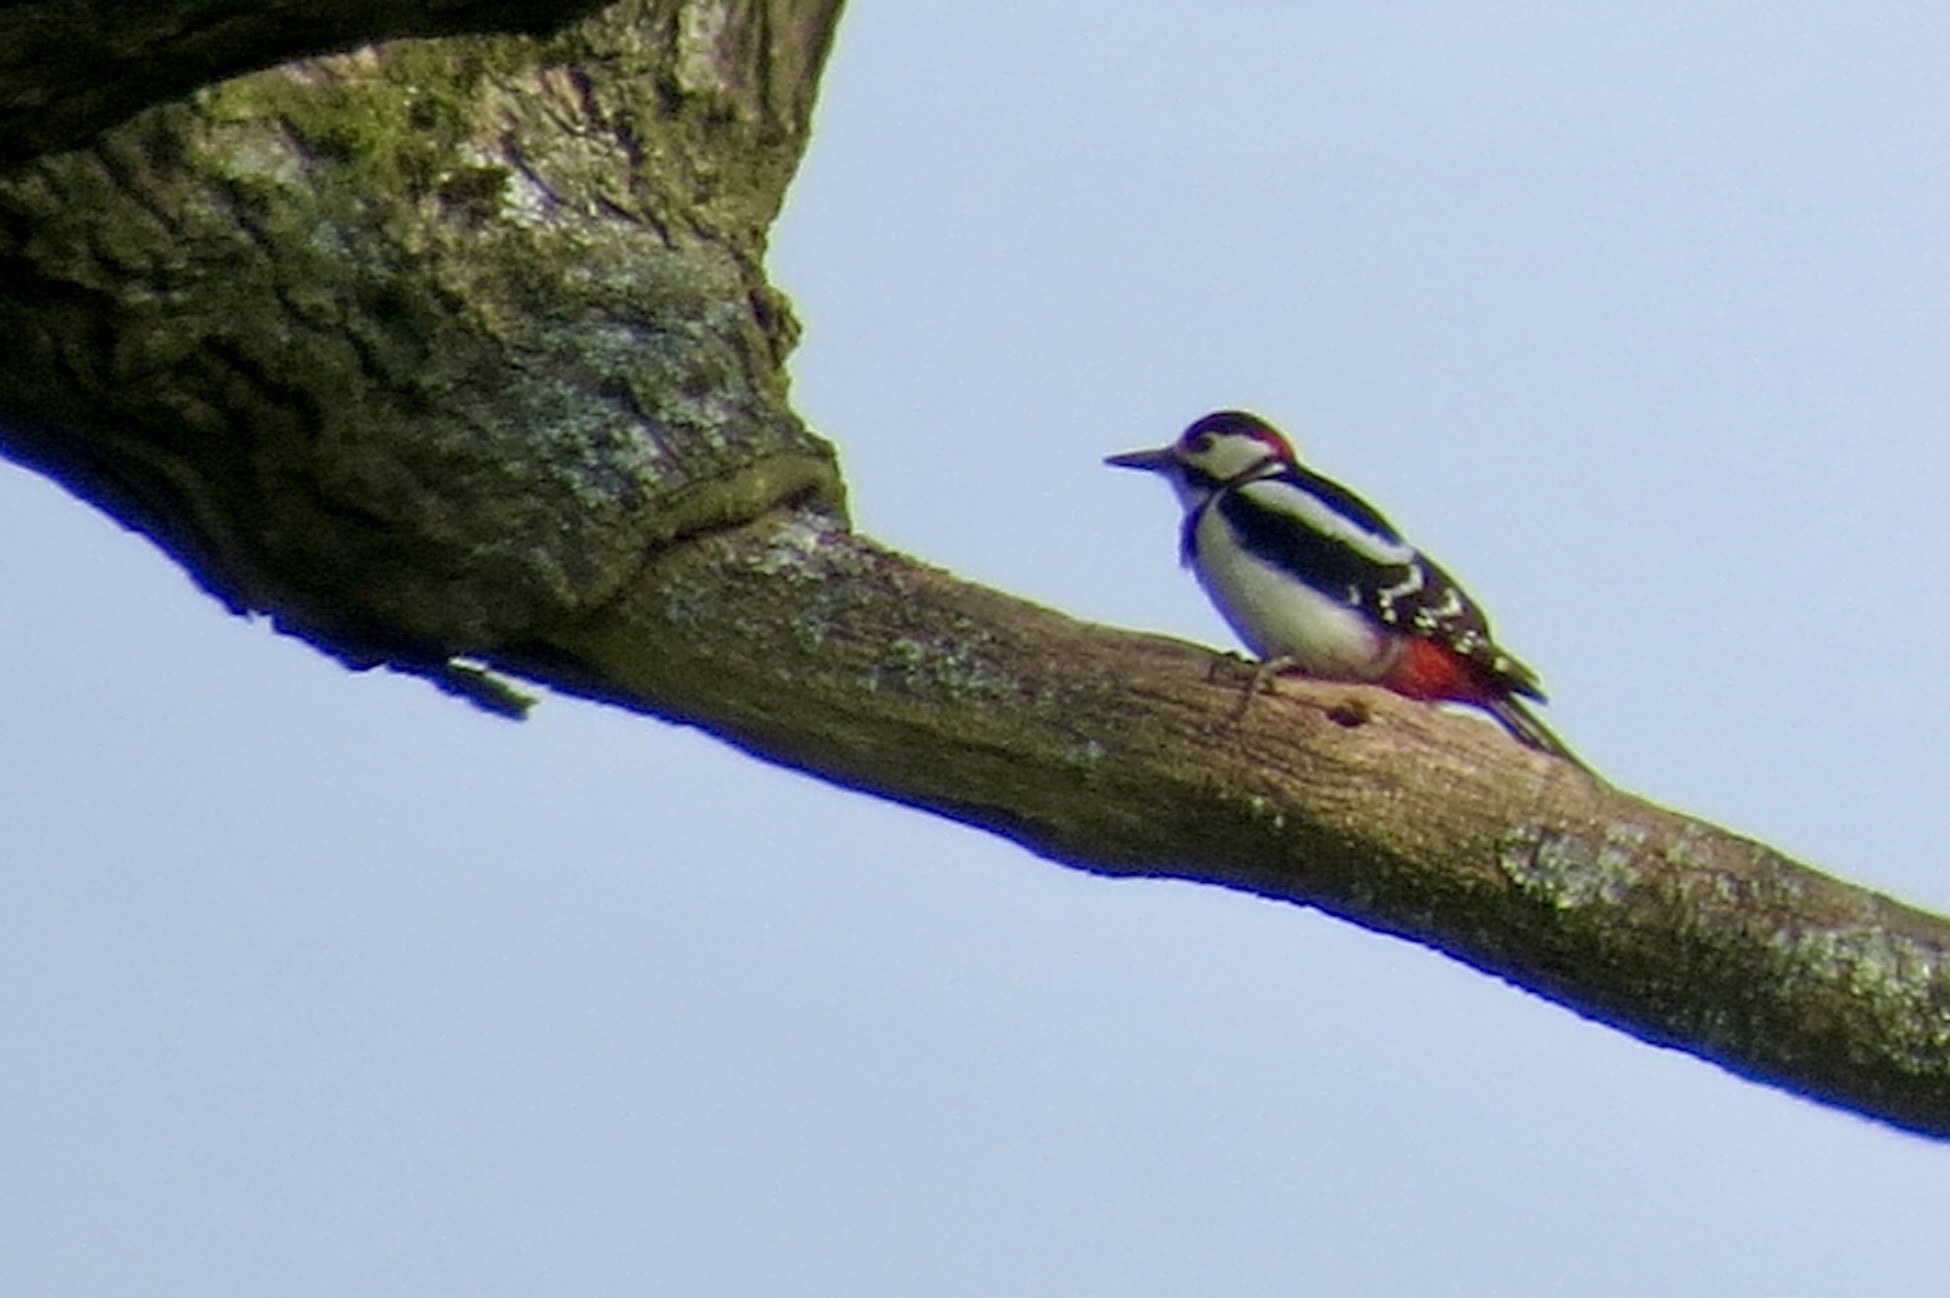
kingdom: Animalia
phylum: Chordata
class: Aves
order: Piciformes
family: Picidae
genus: Dendrocopos
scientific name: Dendrocopos major
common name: Great spotted woodpecker
